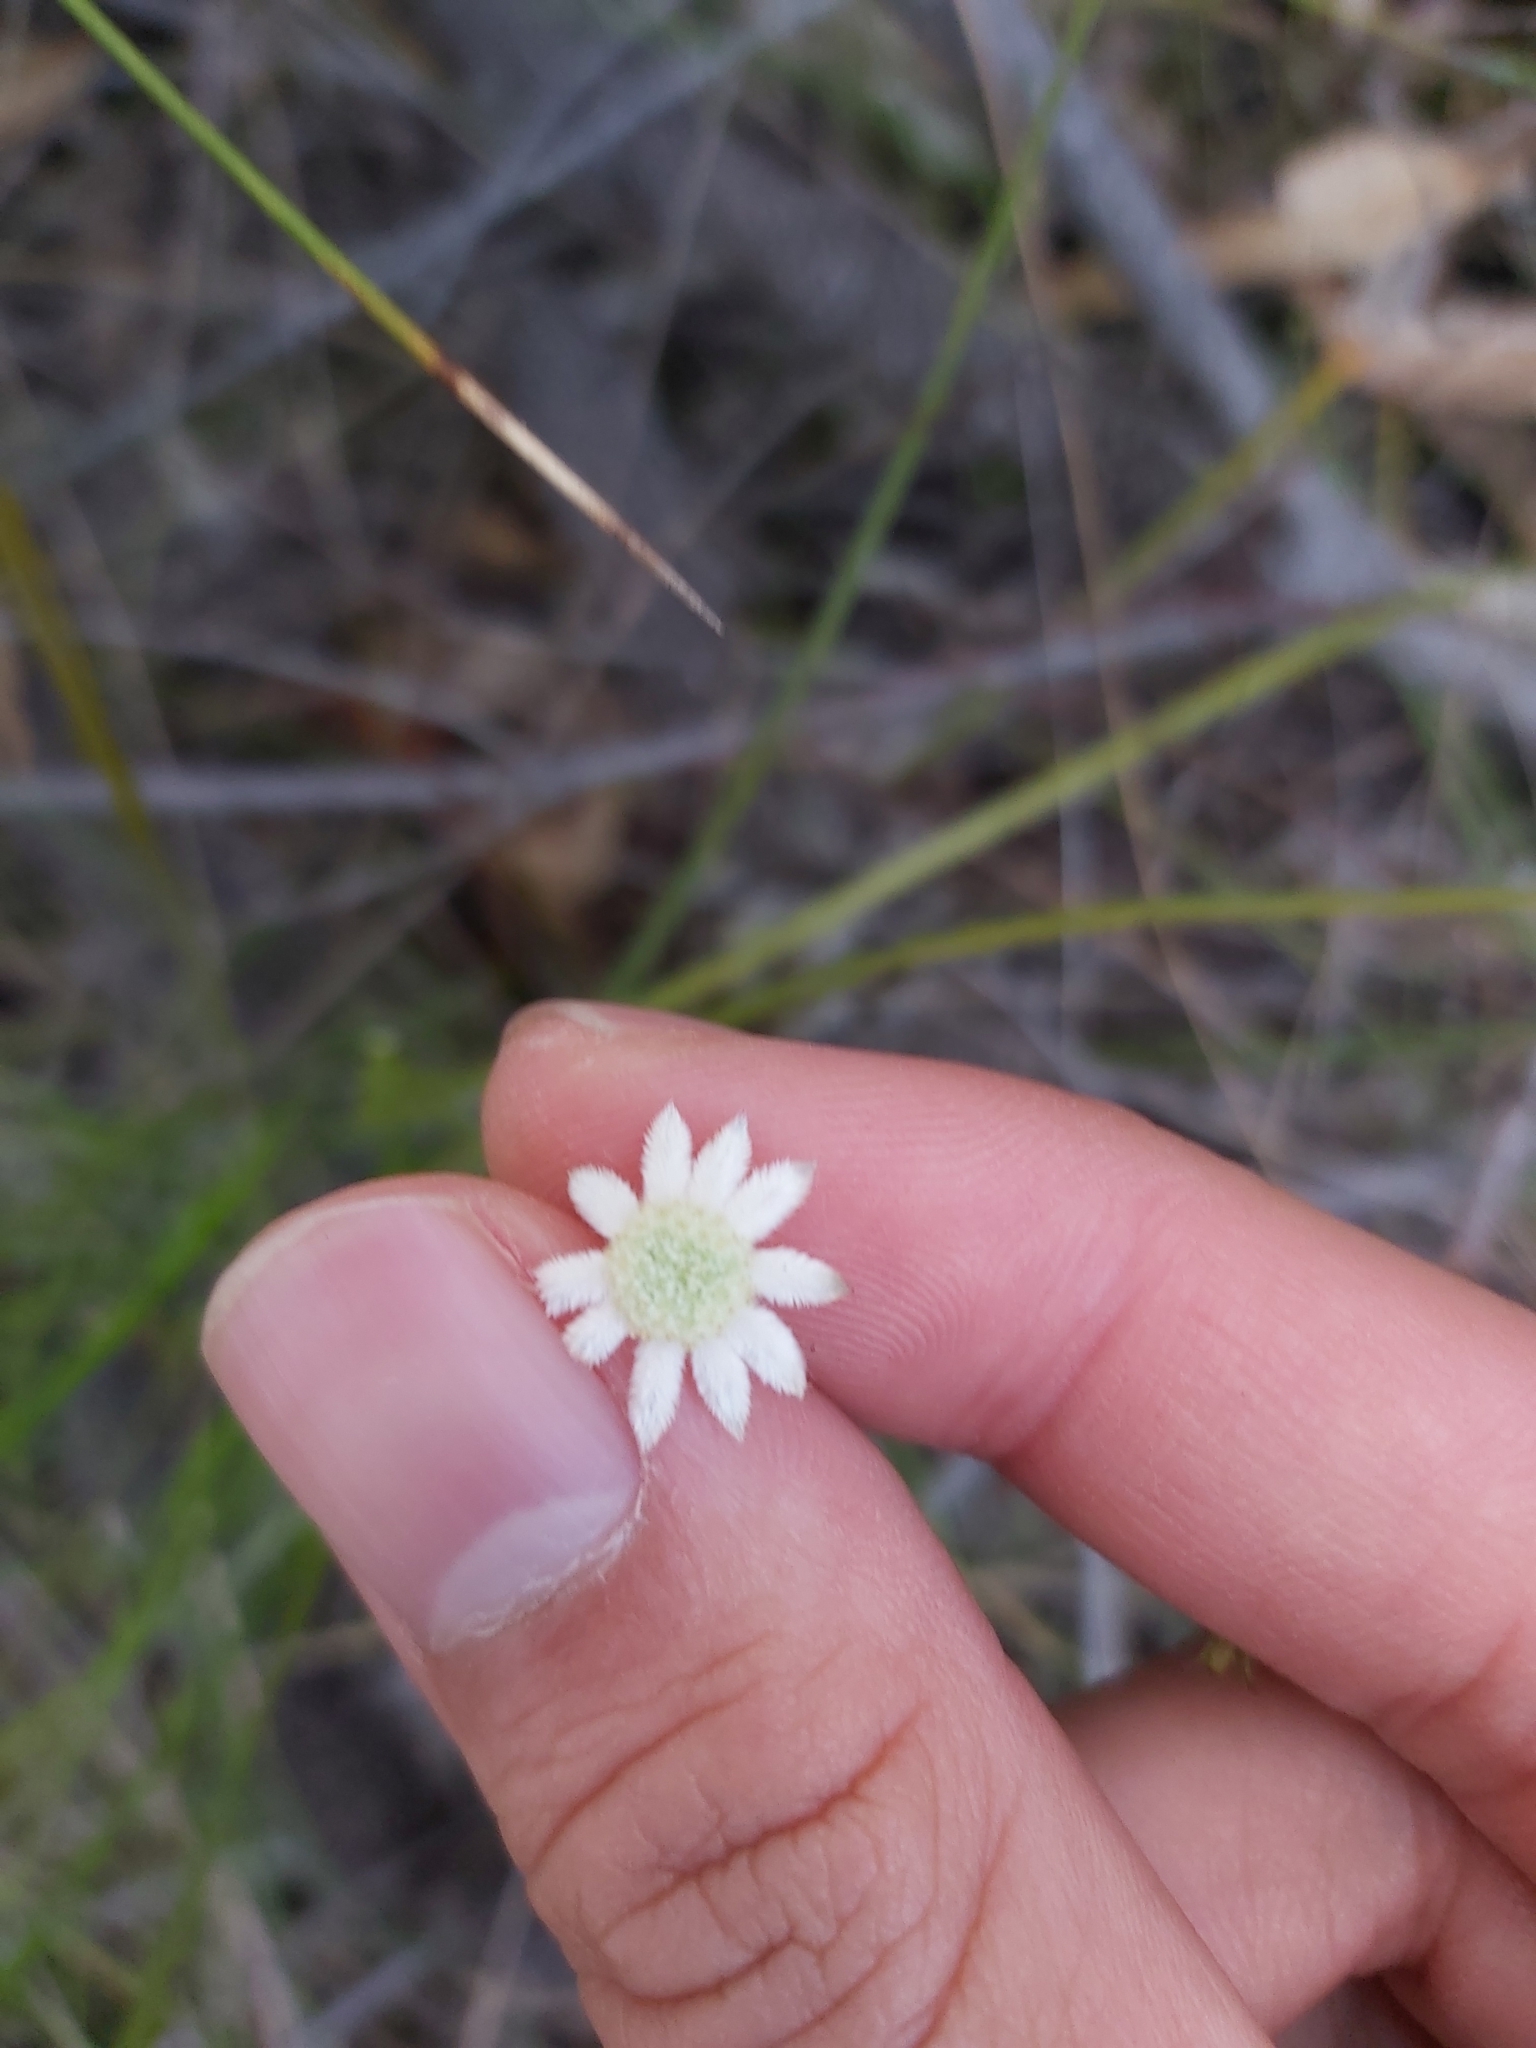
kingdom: Plantae
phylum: Tracheophyta
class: Magnoliopsida
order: Apiales
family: Apiaceae
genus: Actinotus
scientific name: Actinotus minor
